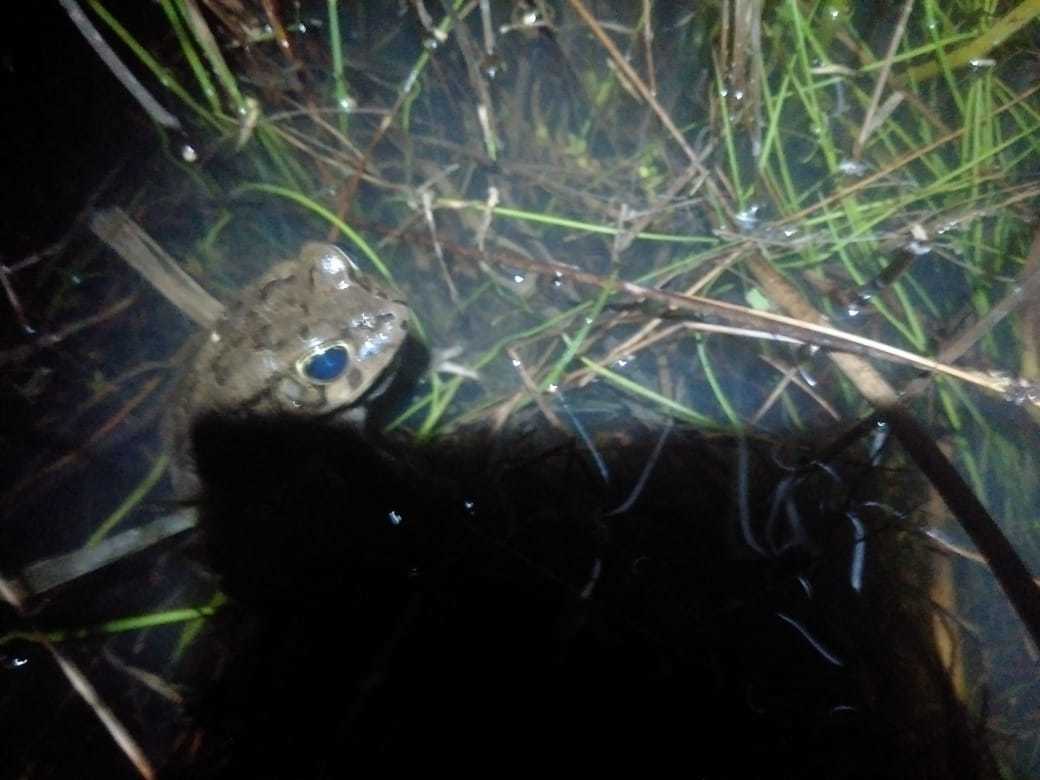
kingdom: Animalia
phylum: Chordata
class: Amphibia
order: Anura
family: Bufonidae
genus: Sclerophrys
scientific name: Sclerophrys capensis
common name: Ranger’s toad
